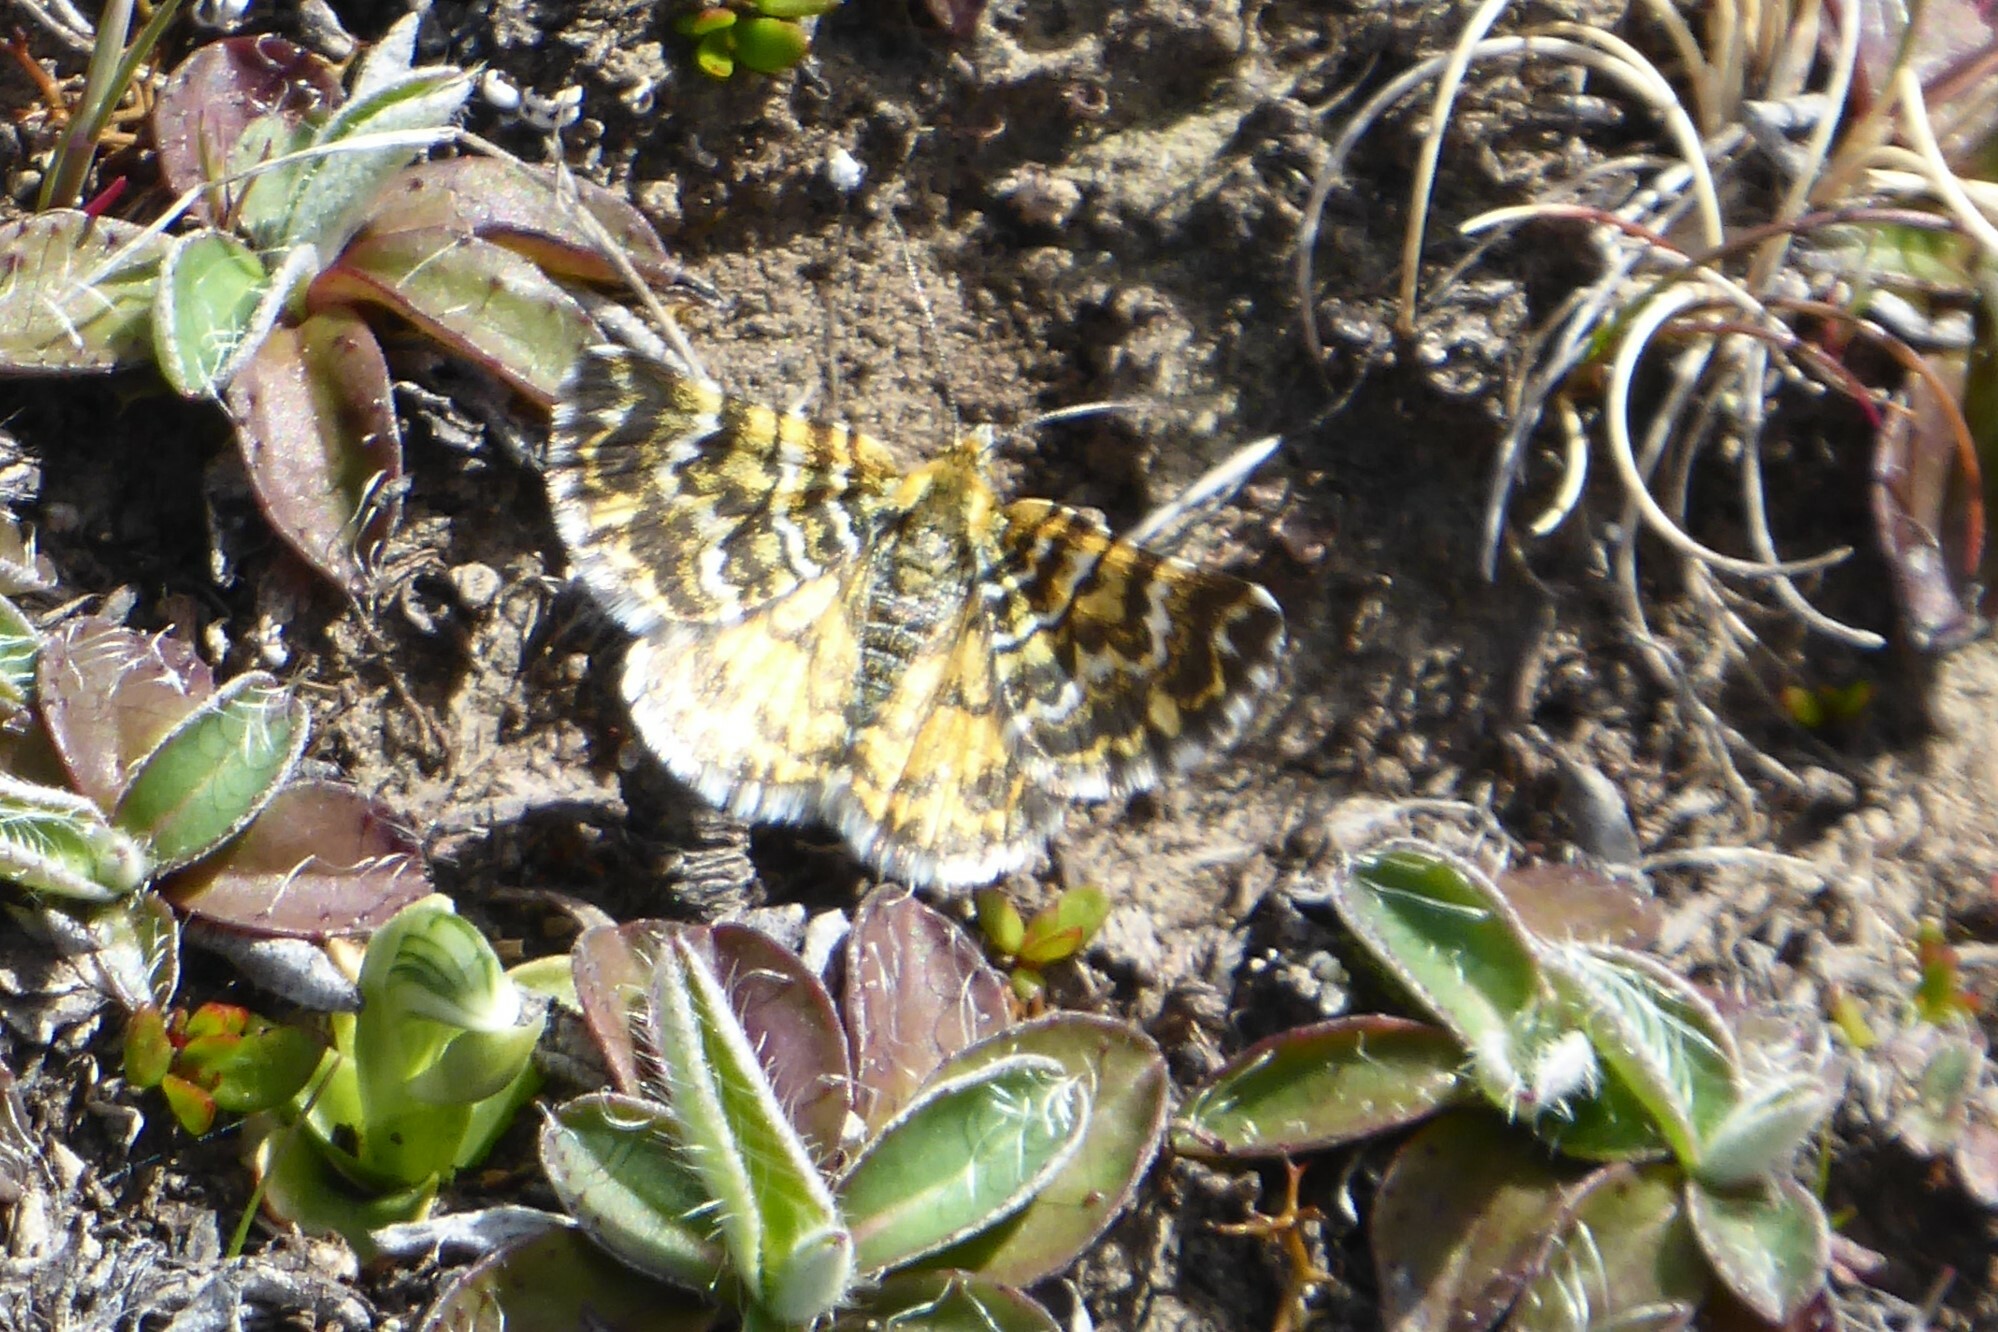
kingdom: Animalia
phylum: Arthropoda
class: Insecta
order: Lepidoptera
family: Geometridae
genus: Notoreas
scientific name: Notoreas
